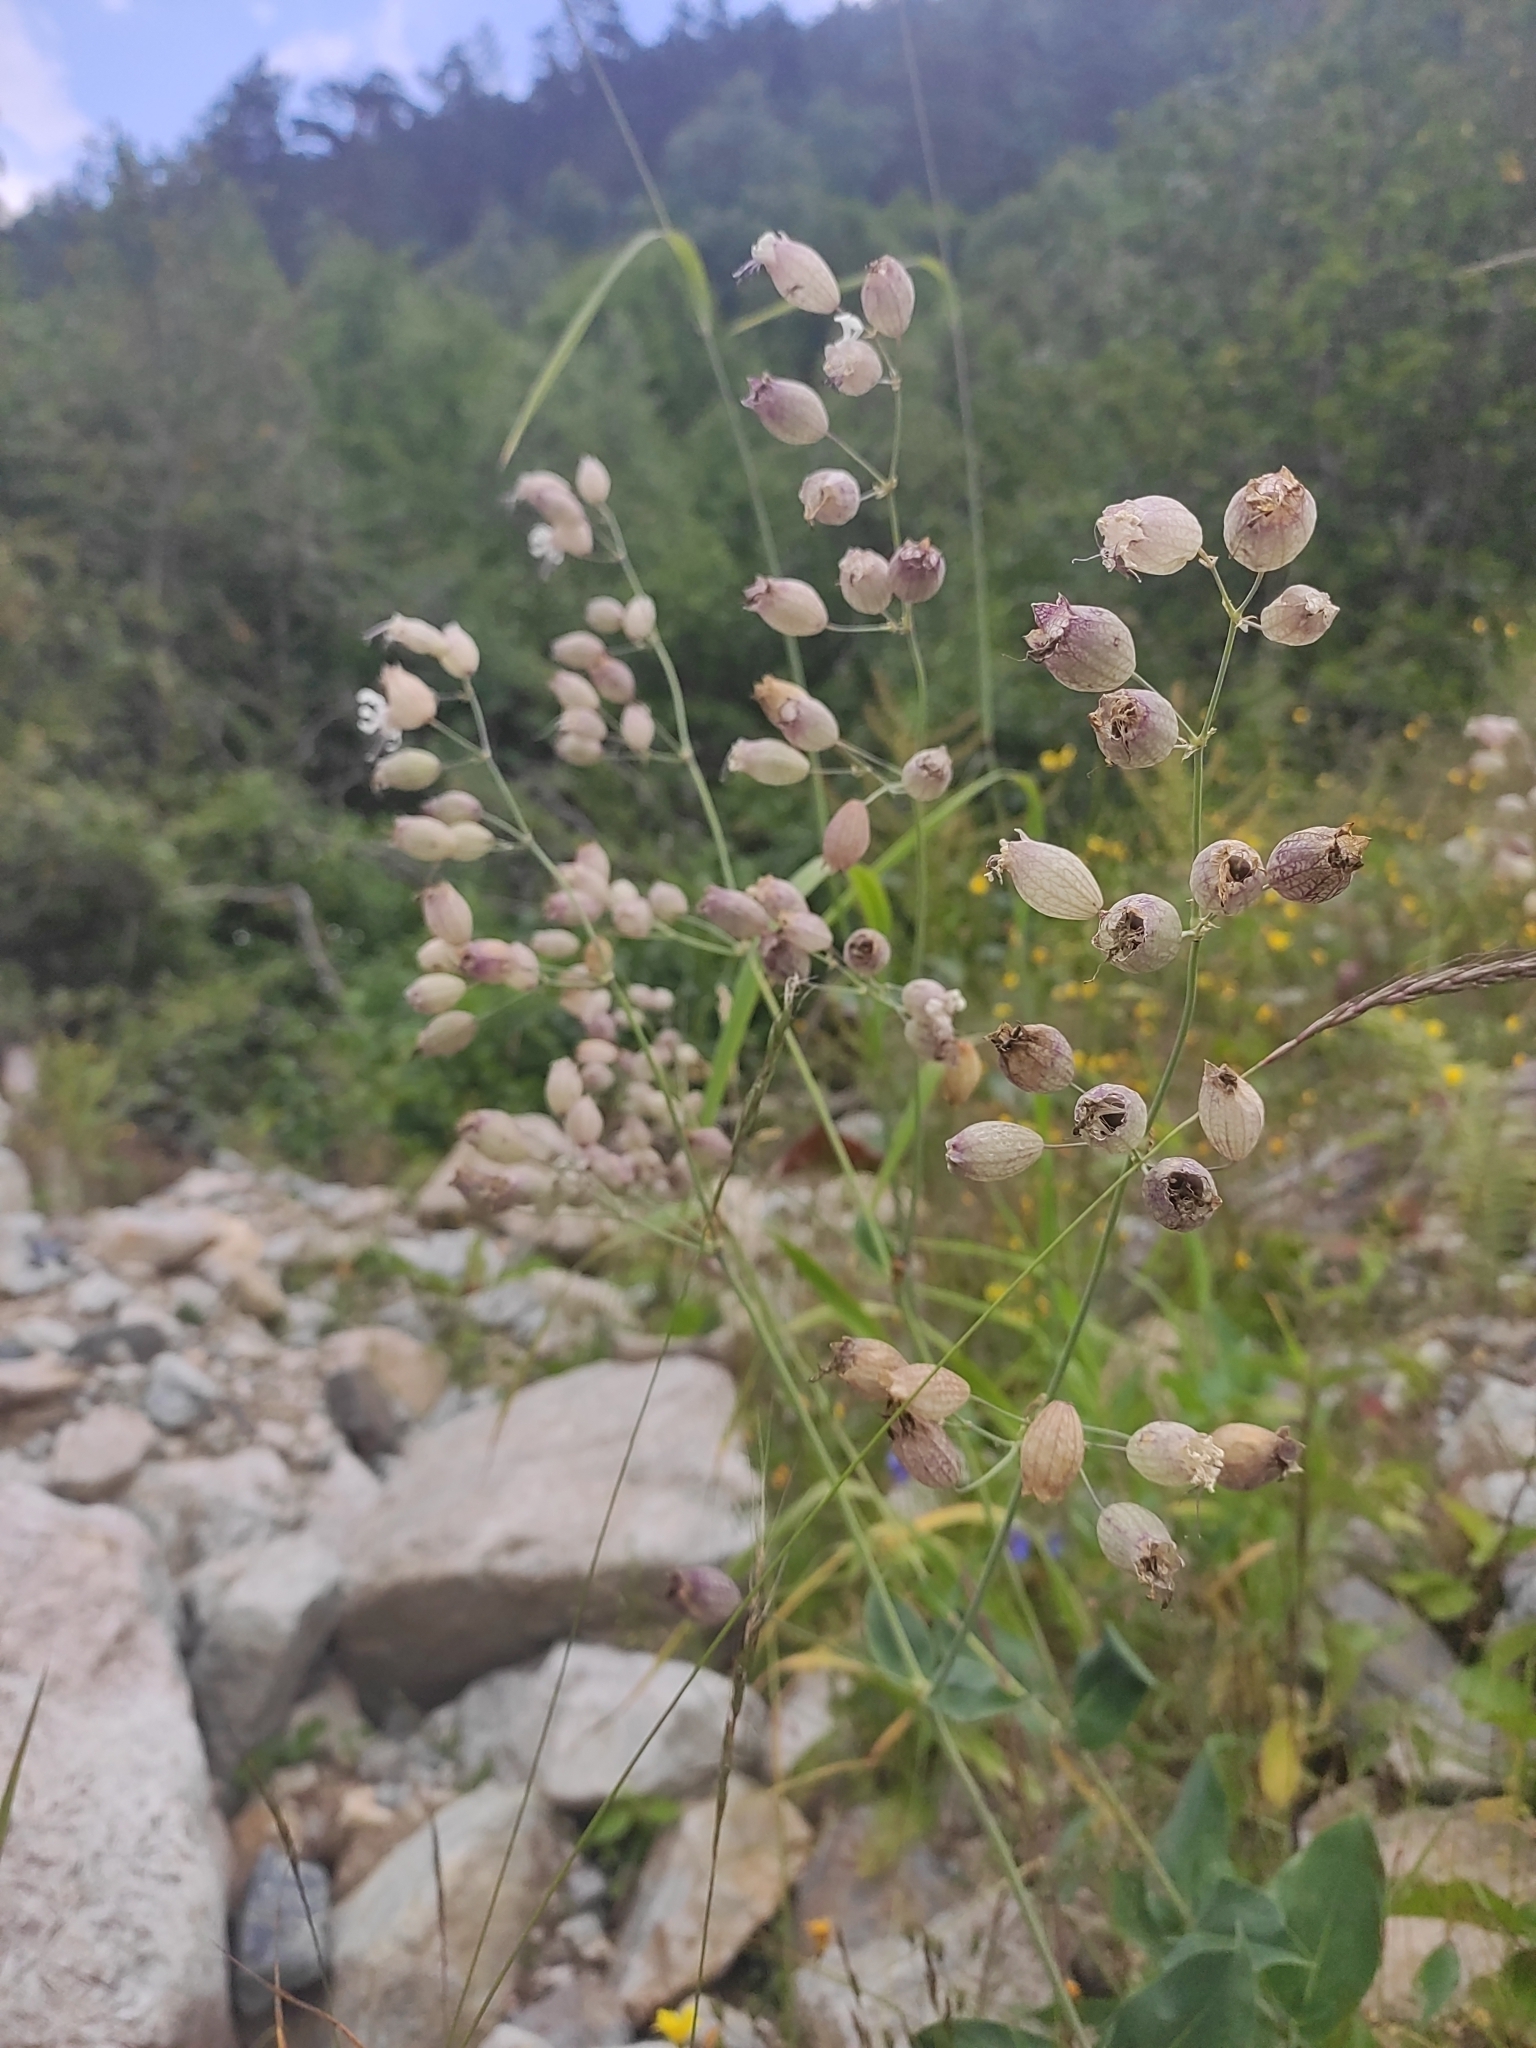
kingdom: Plantae
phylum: Tracheophyta
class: Magnoliopsida
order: Caryophyllales
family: Caryophyllaceae
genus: Silene
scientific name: Silene vulgaris
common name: Bladder campion
